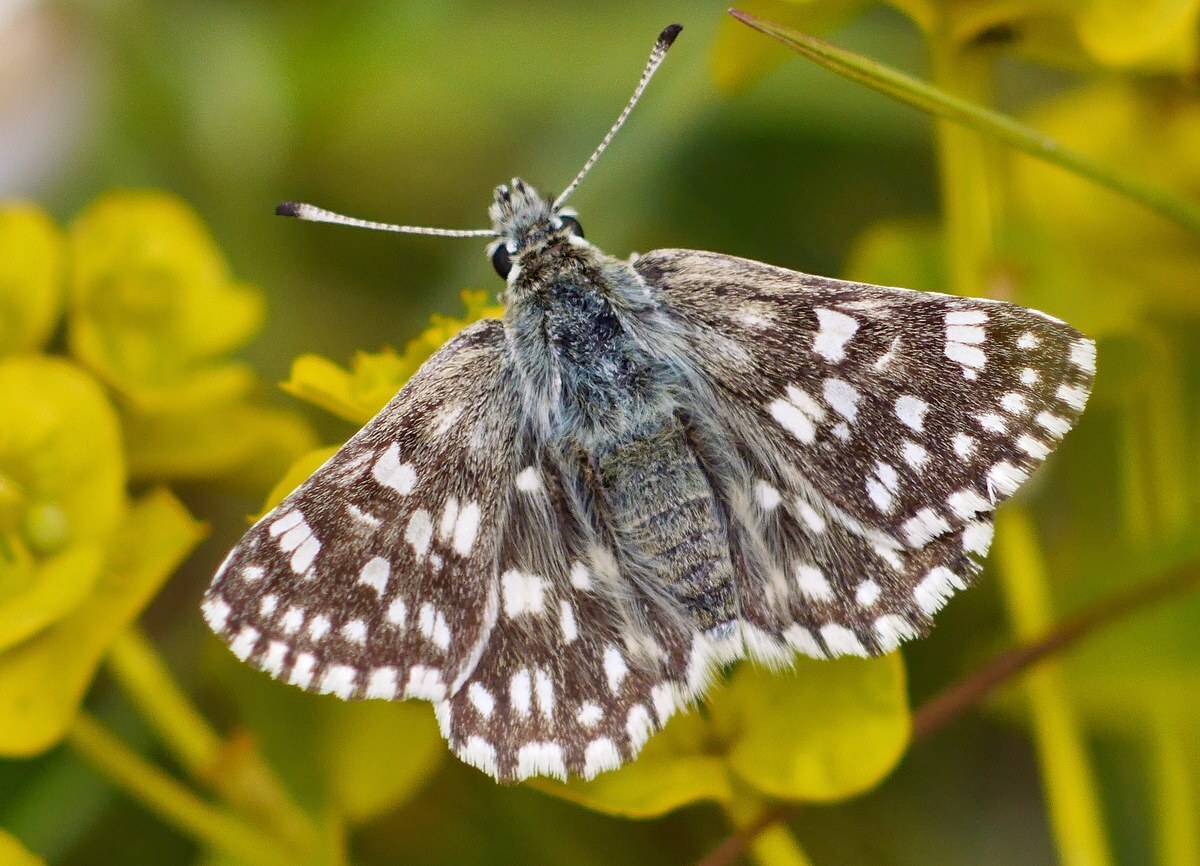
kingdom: Animalia
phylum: Arthropoda
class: Insecta
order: Lepidoptera
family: Hesperiidae
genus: Syrichtus
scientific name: Syrichtus tessellum
